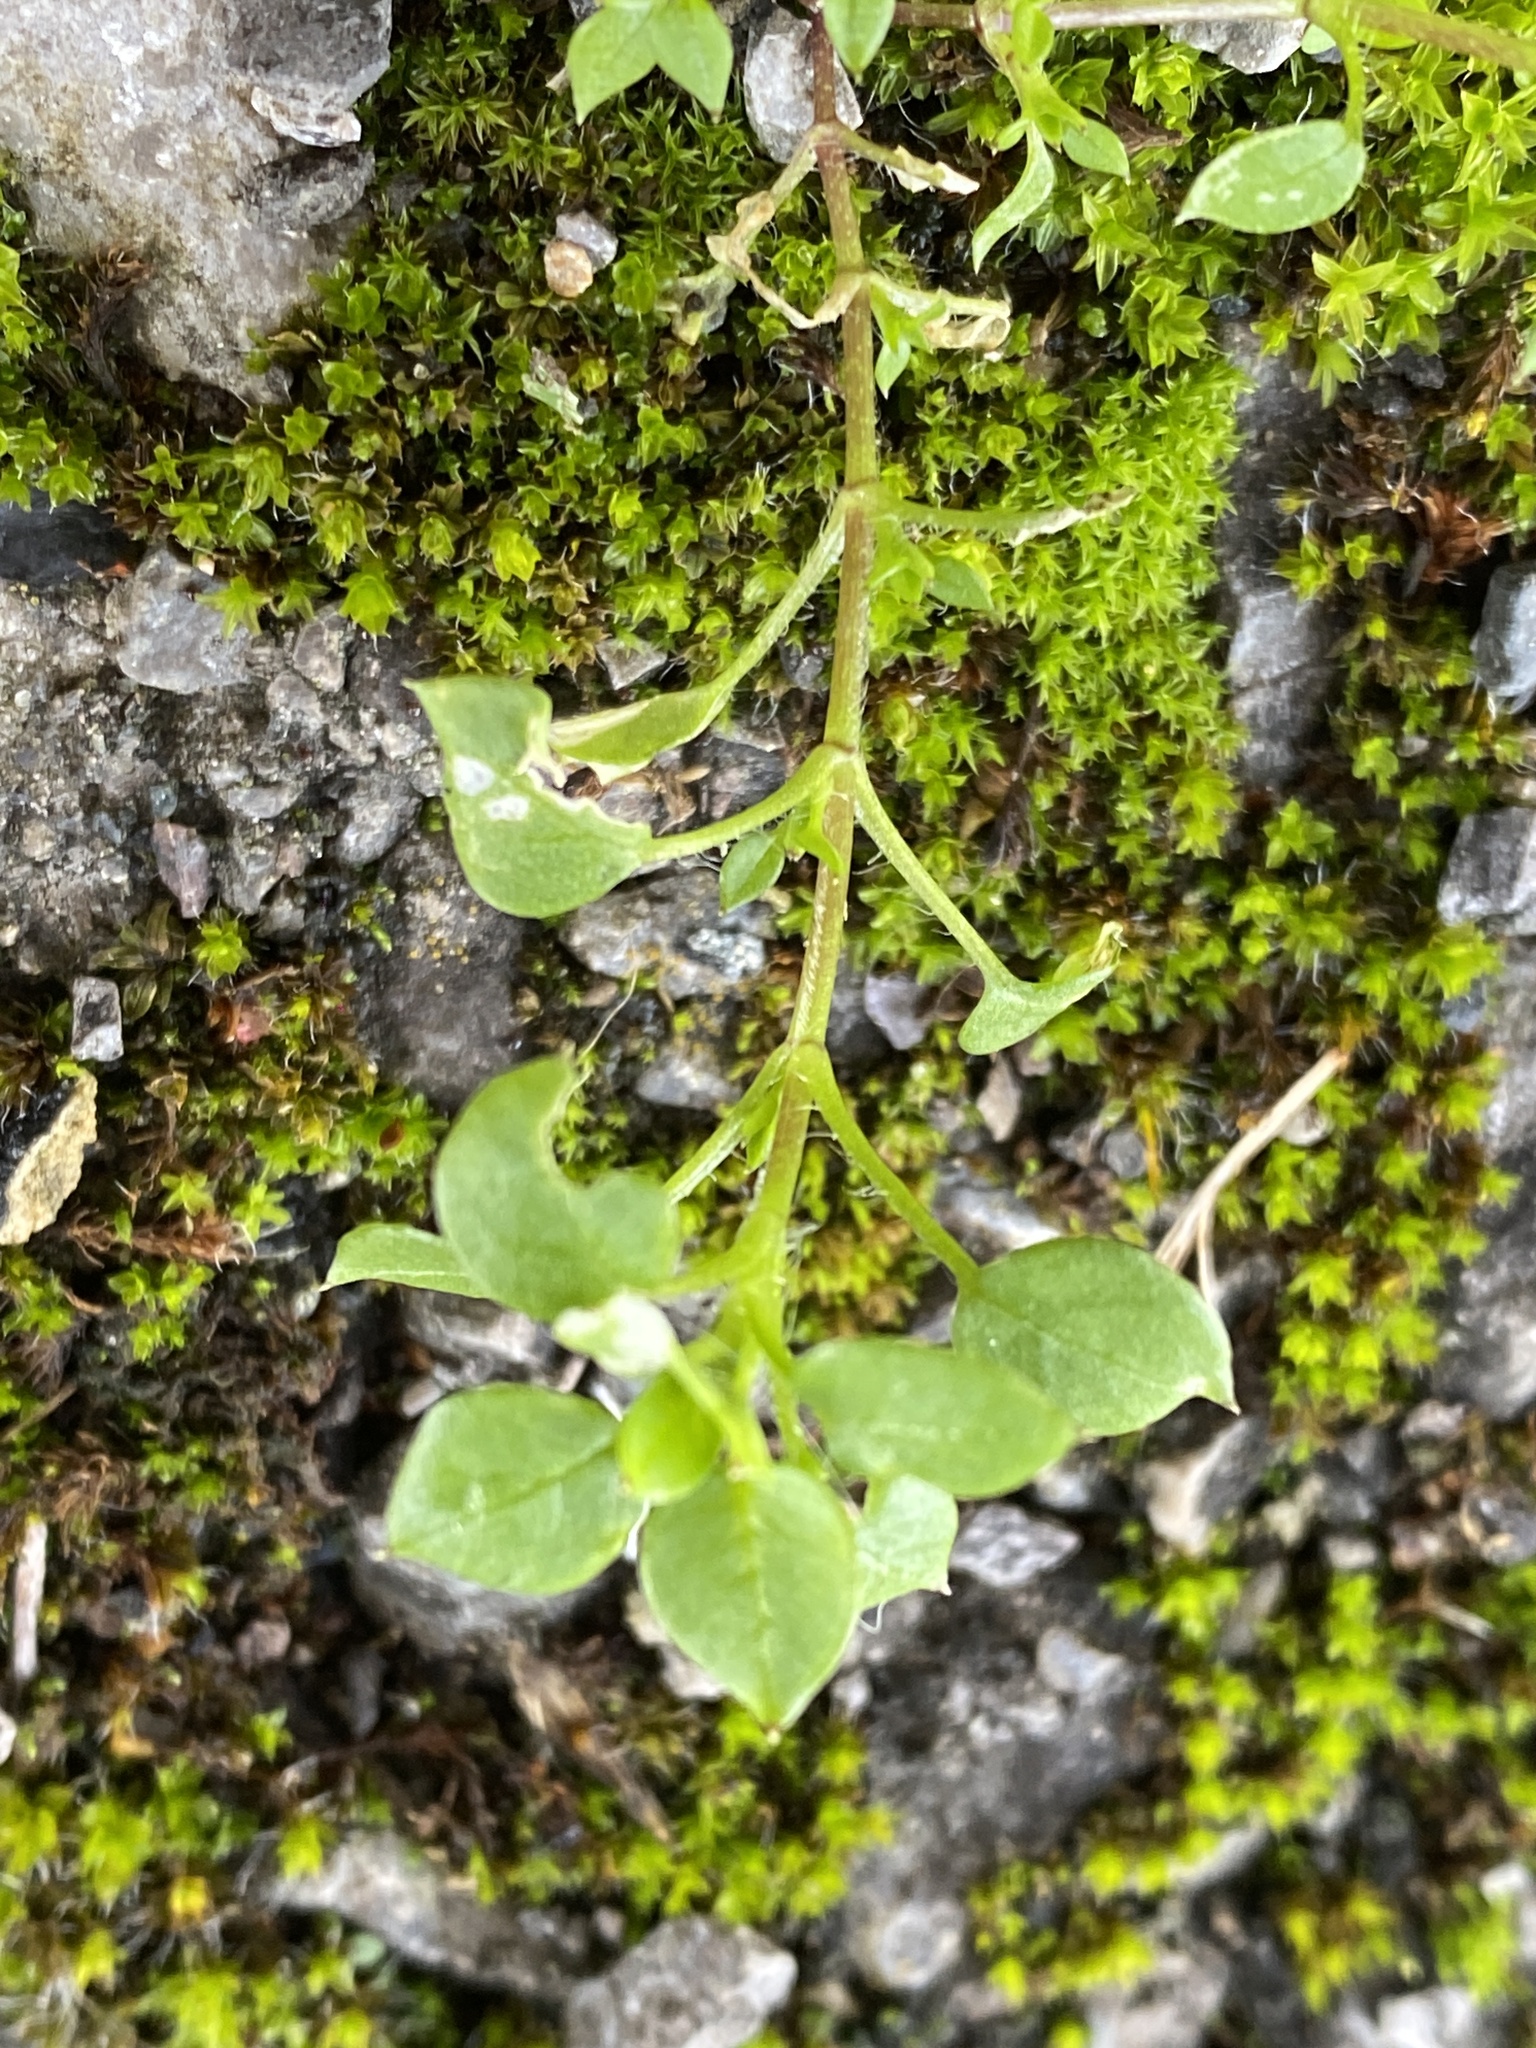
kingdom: Plantae
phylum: Tracheophyta
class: Magnoliopsida
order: Caryophyllales
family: Caryophyllaceae
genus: Stellaria
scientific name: Stellaria media
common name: Common chickweed
